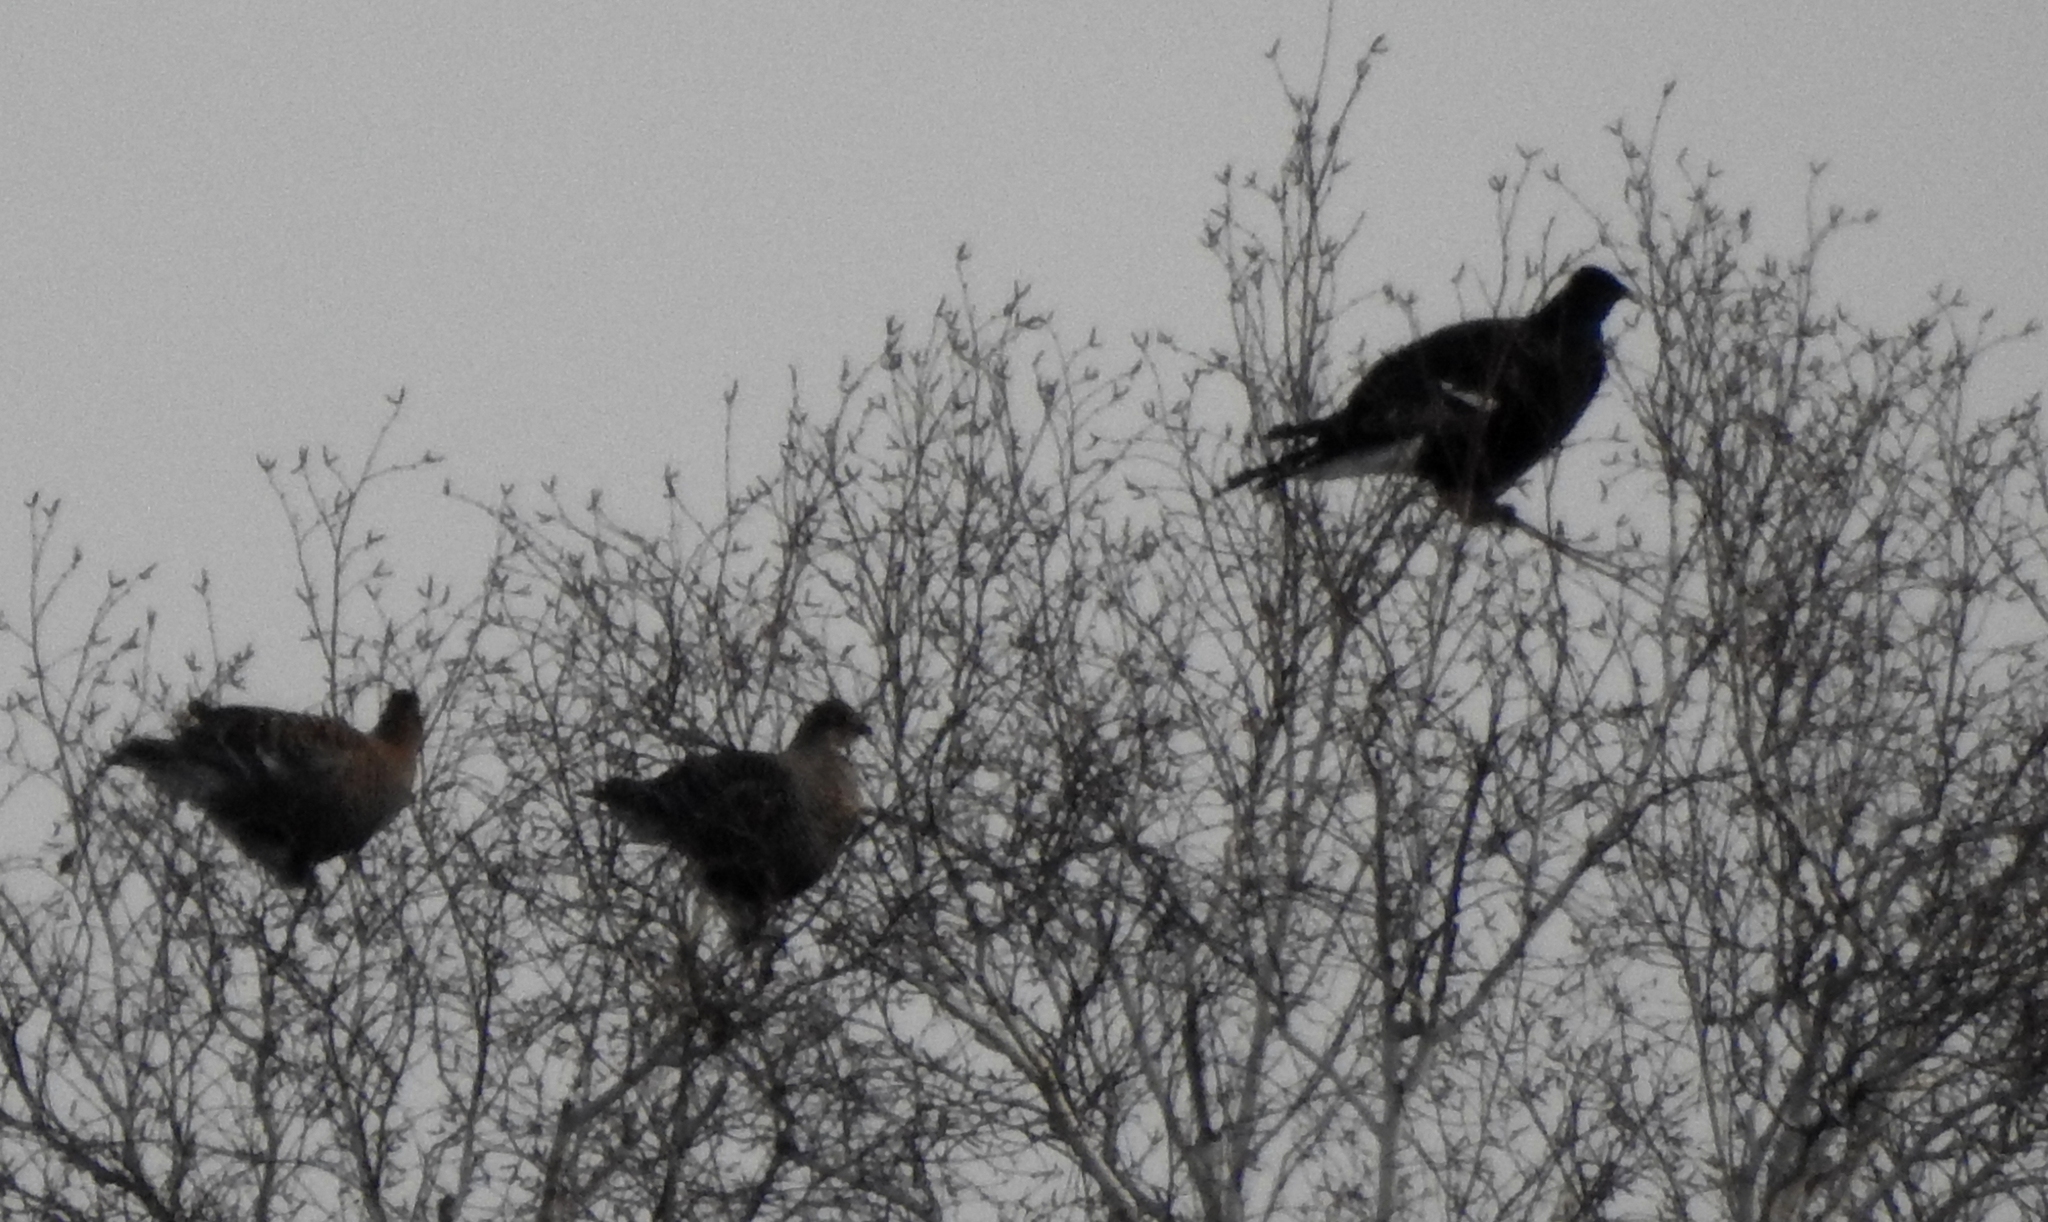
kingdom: Animalia
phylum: Chordata
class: Aves
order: Galliformes
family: Phasianidae
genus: Lyrurus
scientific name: Lyrurus tetrix
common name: Black grouse
